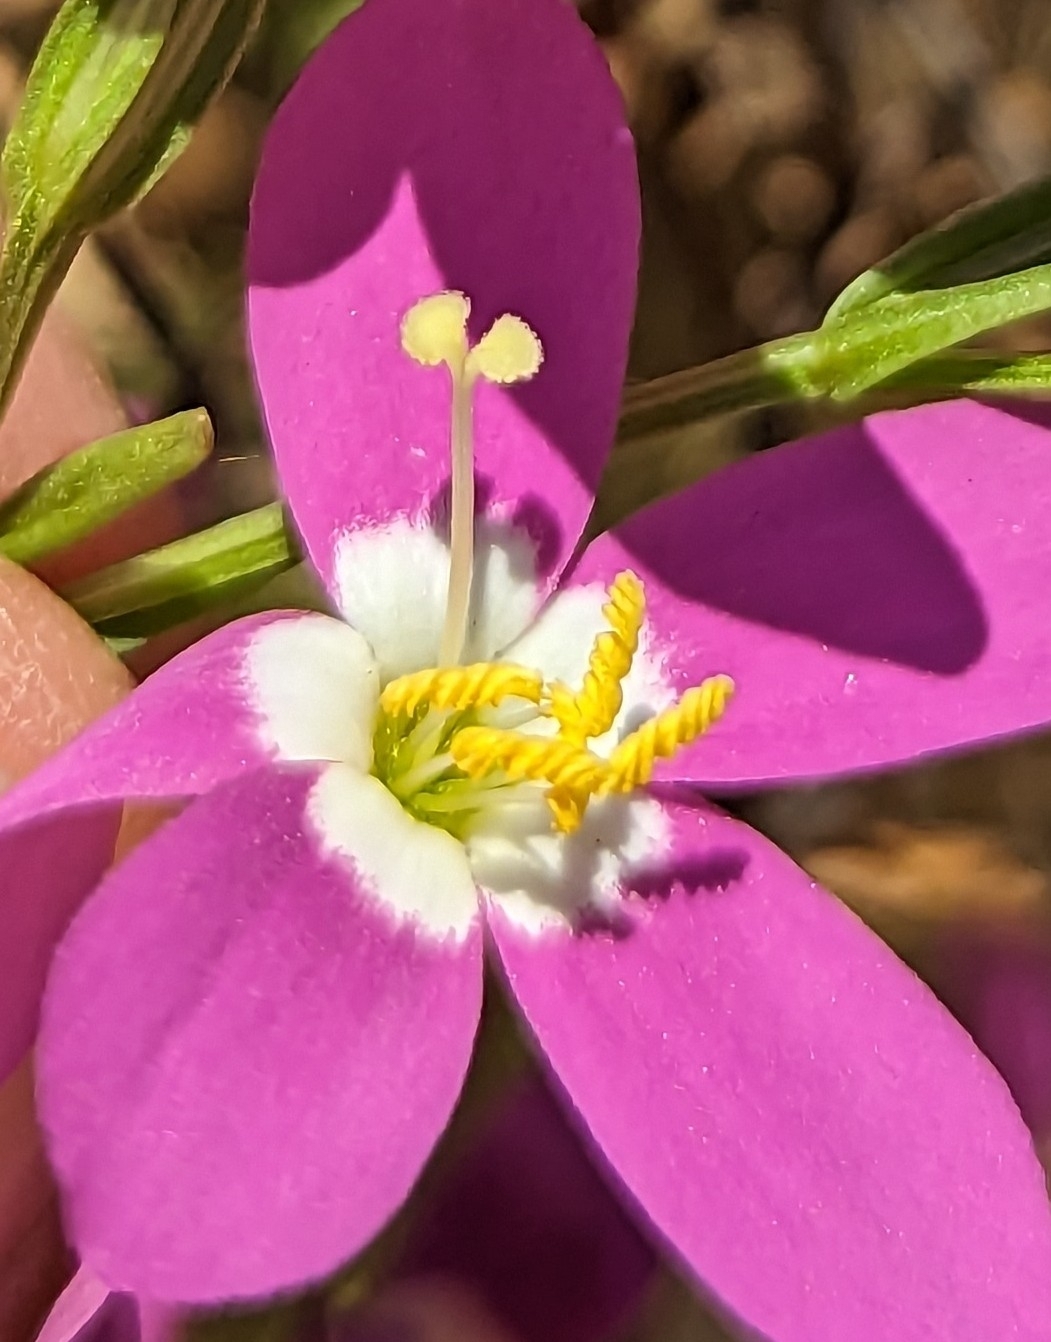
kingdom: Plantae
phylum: Tracheophyta
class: Magnoliopsida
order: Gentianales
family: Gentianaceae
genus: Zeltnera
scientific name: Zeltnera venusta
